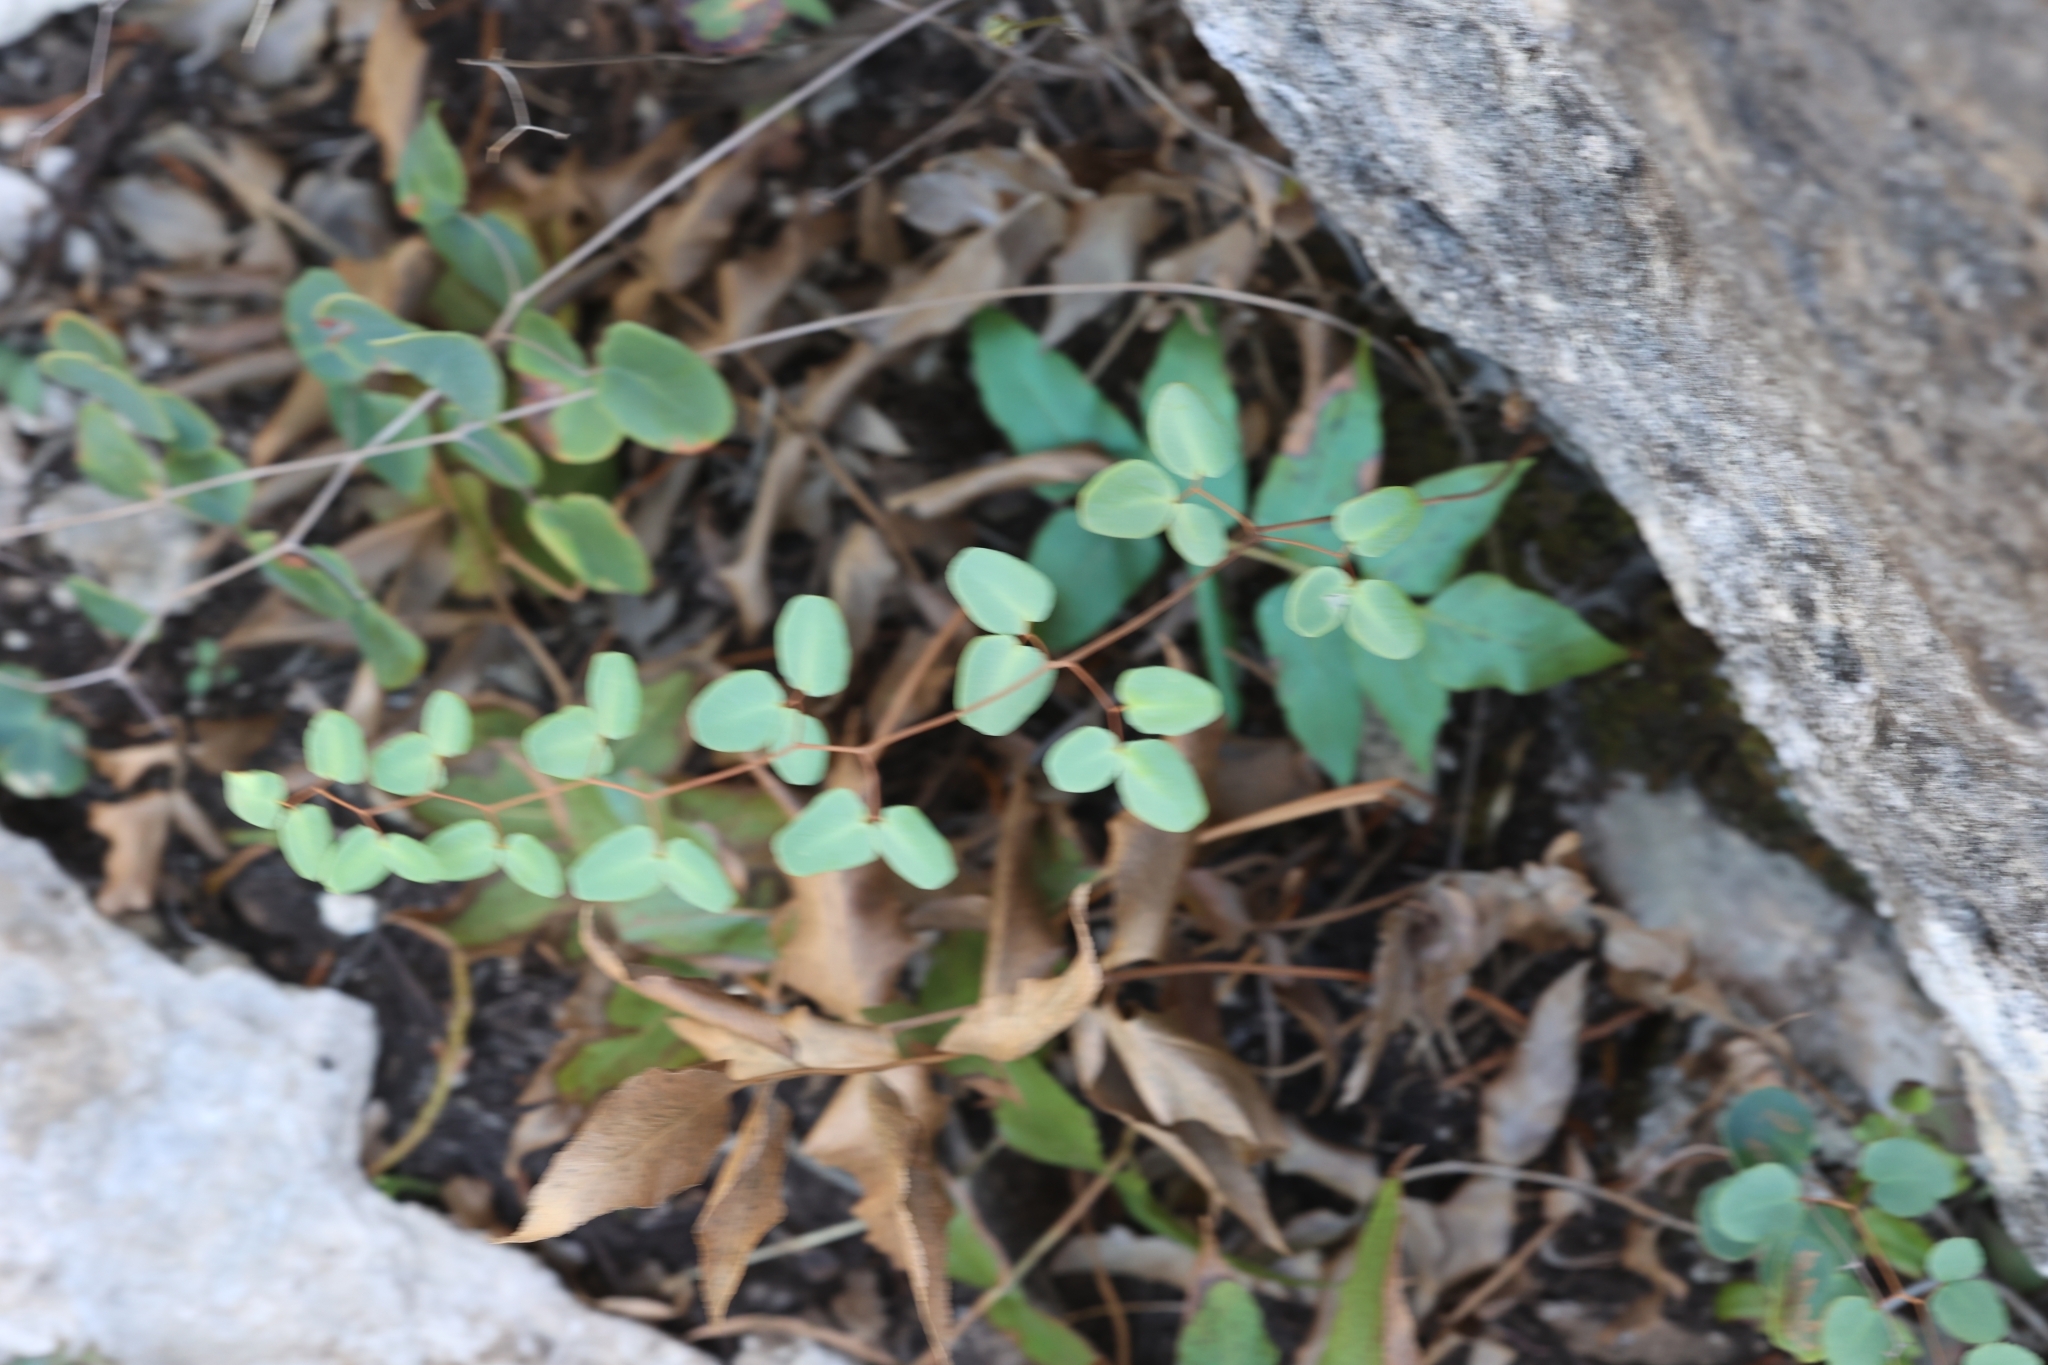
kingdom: Plantae
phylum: Tracheophyta
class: Polypodiopsida
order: Polypodiales
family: Pteridaceae
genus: Pellaea
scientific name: Pellaea ovata
